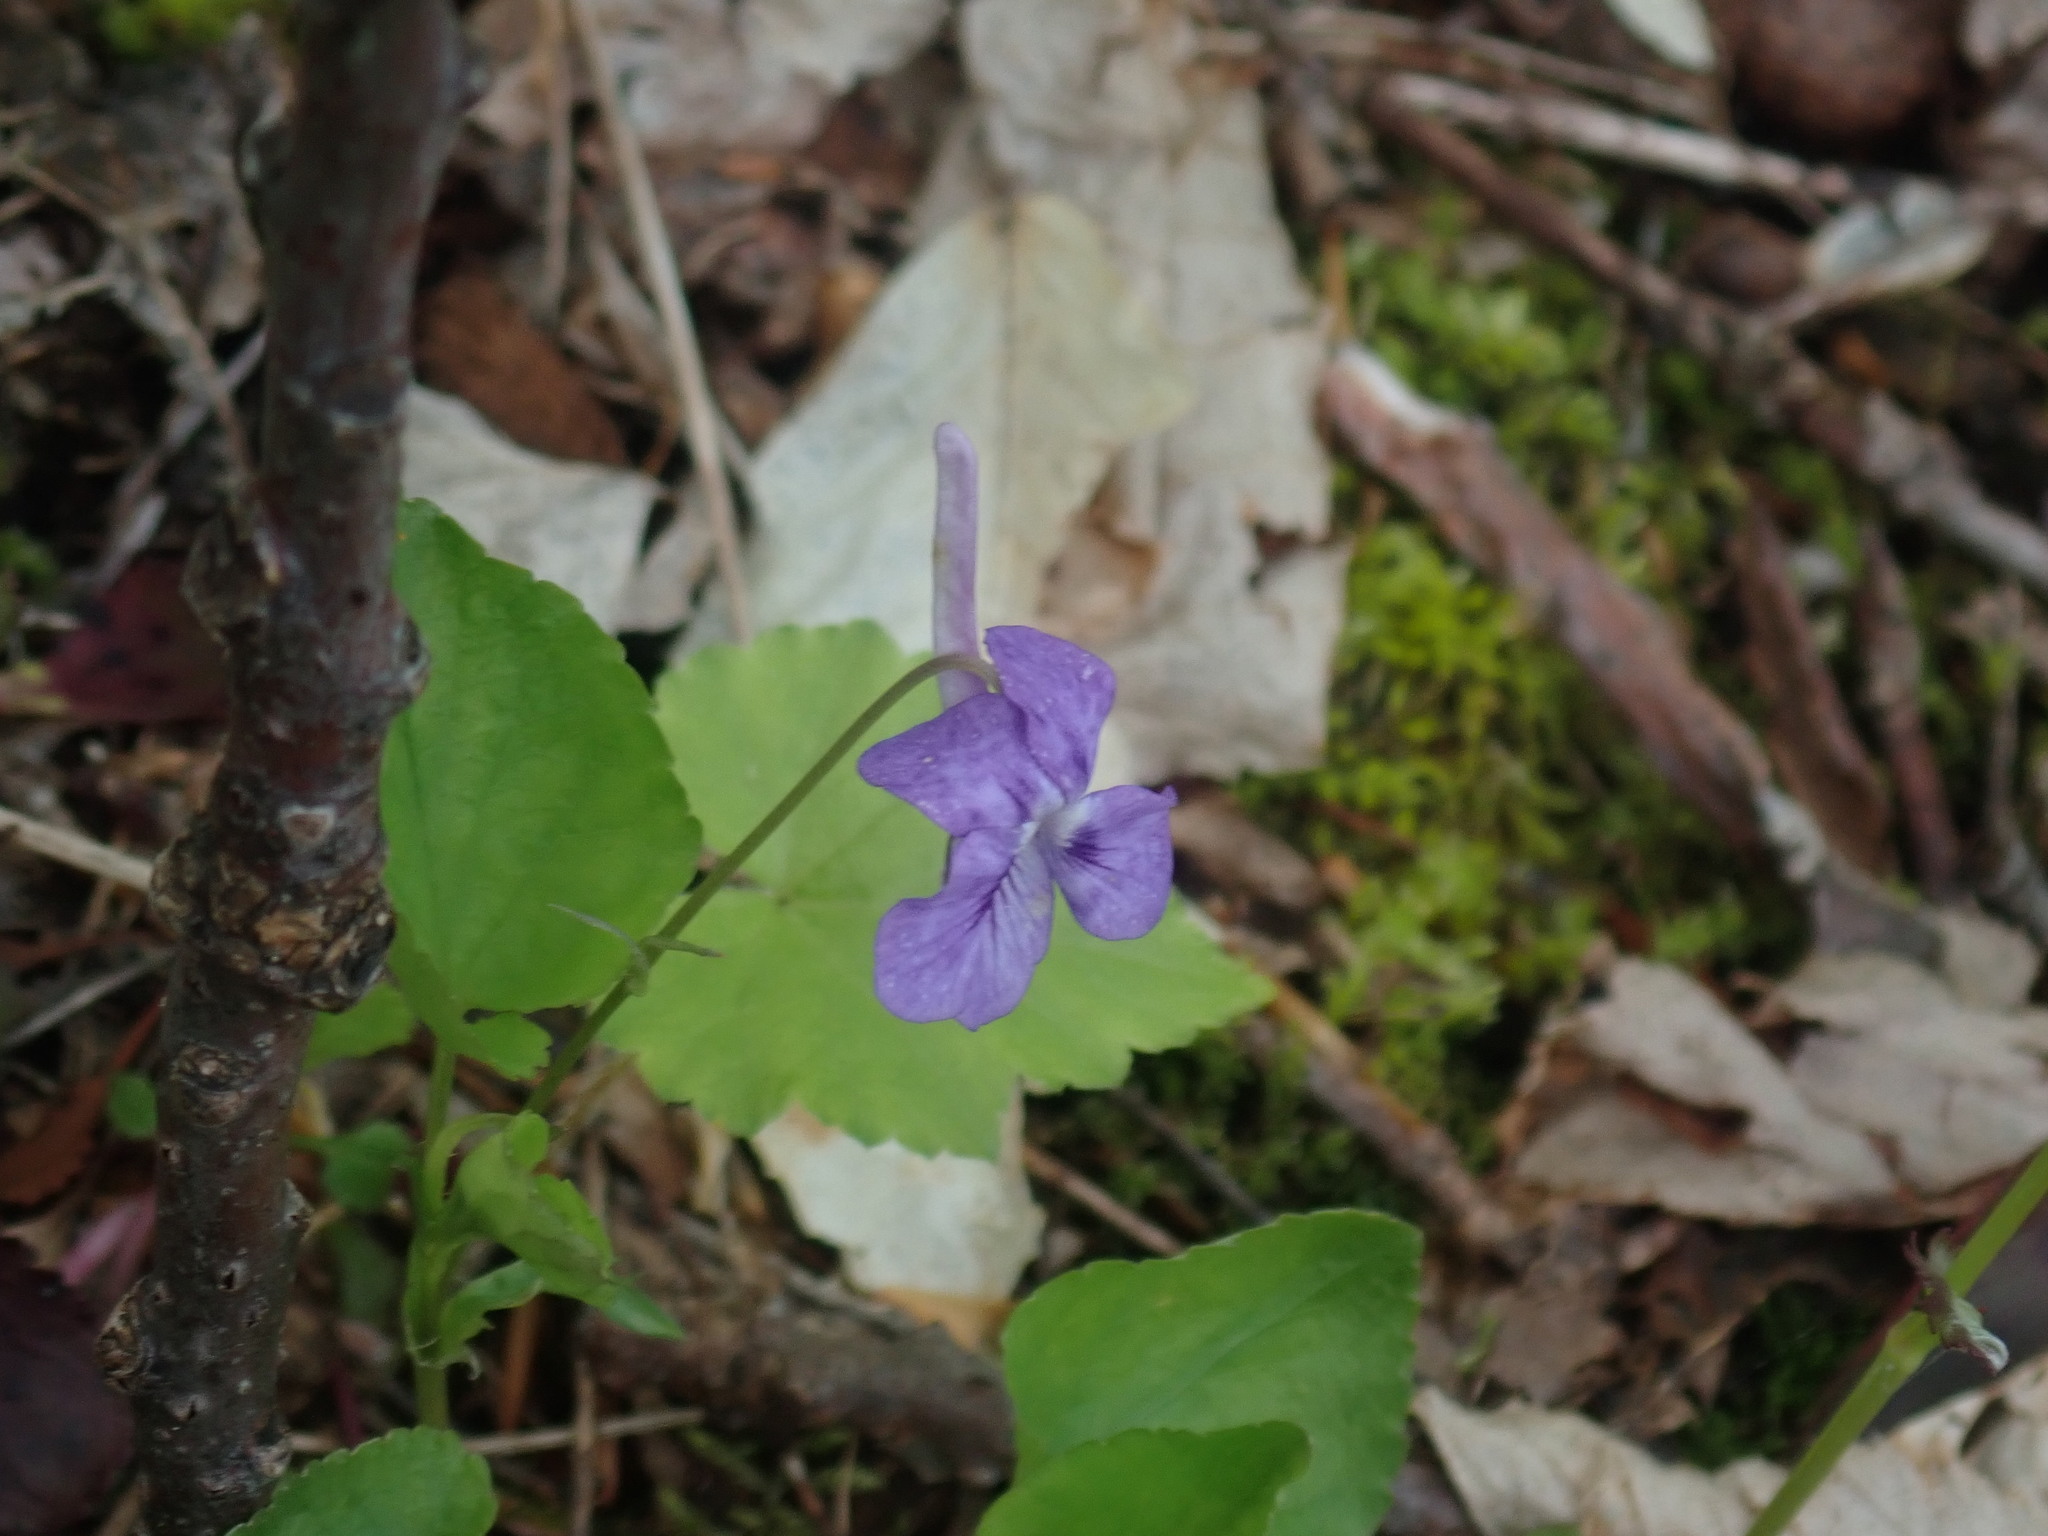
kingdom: Plantae
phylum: Tracheophyta
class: Magnoliopsida
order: Malpighiales
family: Violaceae
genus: Viola
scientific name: Viola rostrata
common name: Long-spur violet
